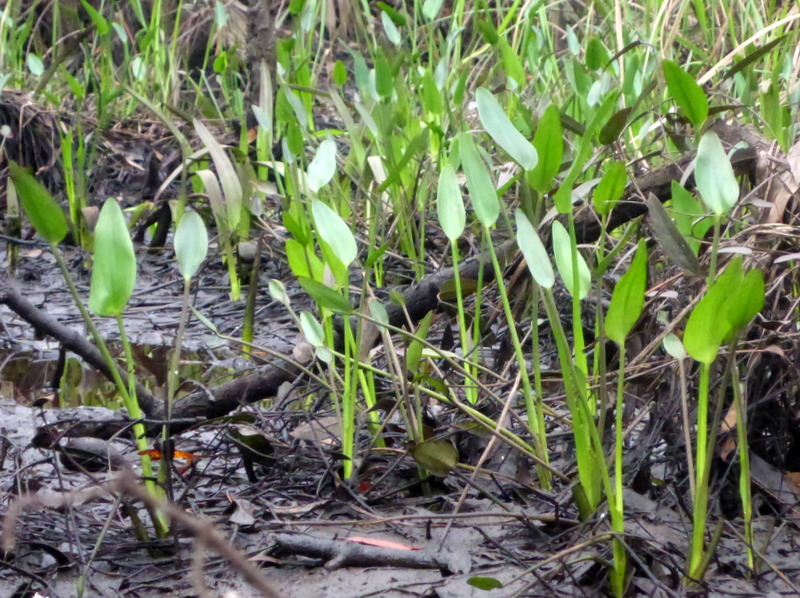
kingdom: Plantae
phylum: Tracheophyta
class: Liliopsida
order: Commelinales
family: Pontederiaceae
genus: Pontederia
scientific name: Pontederia cordata
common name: Pickerelweed
